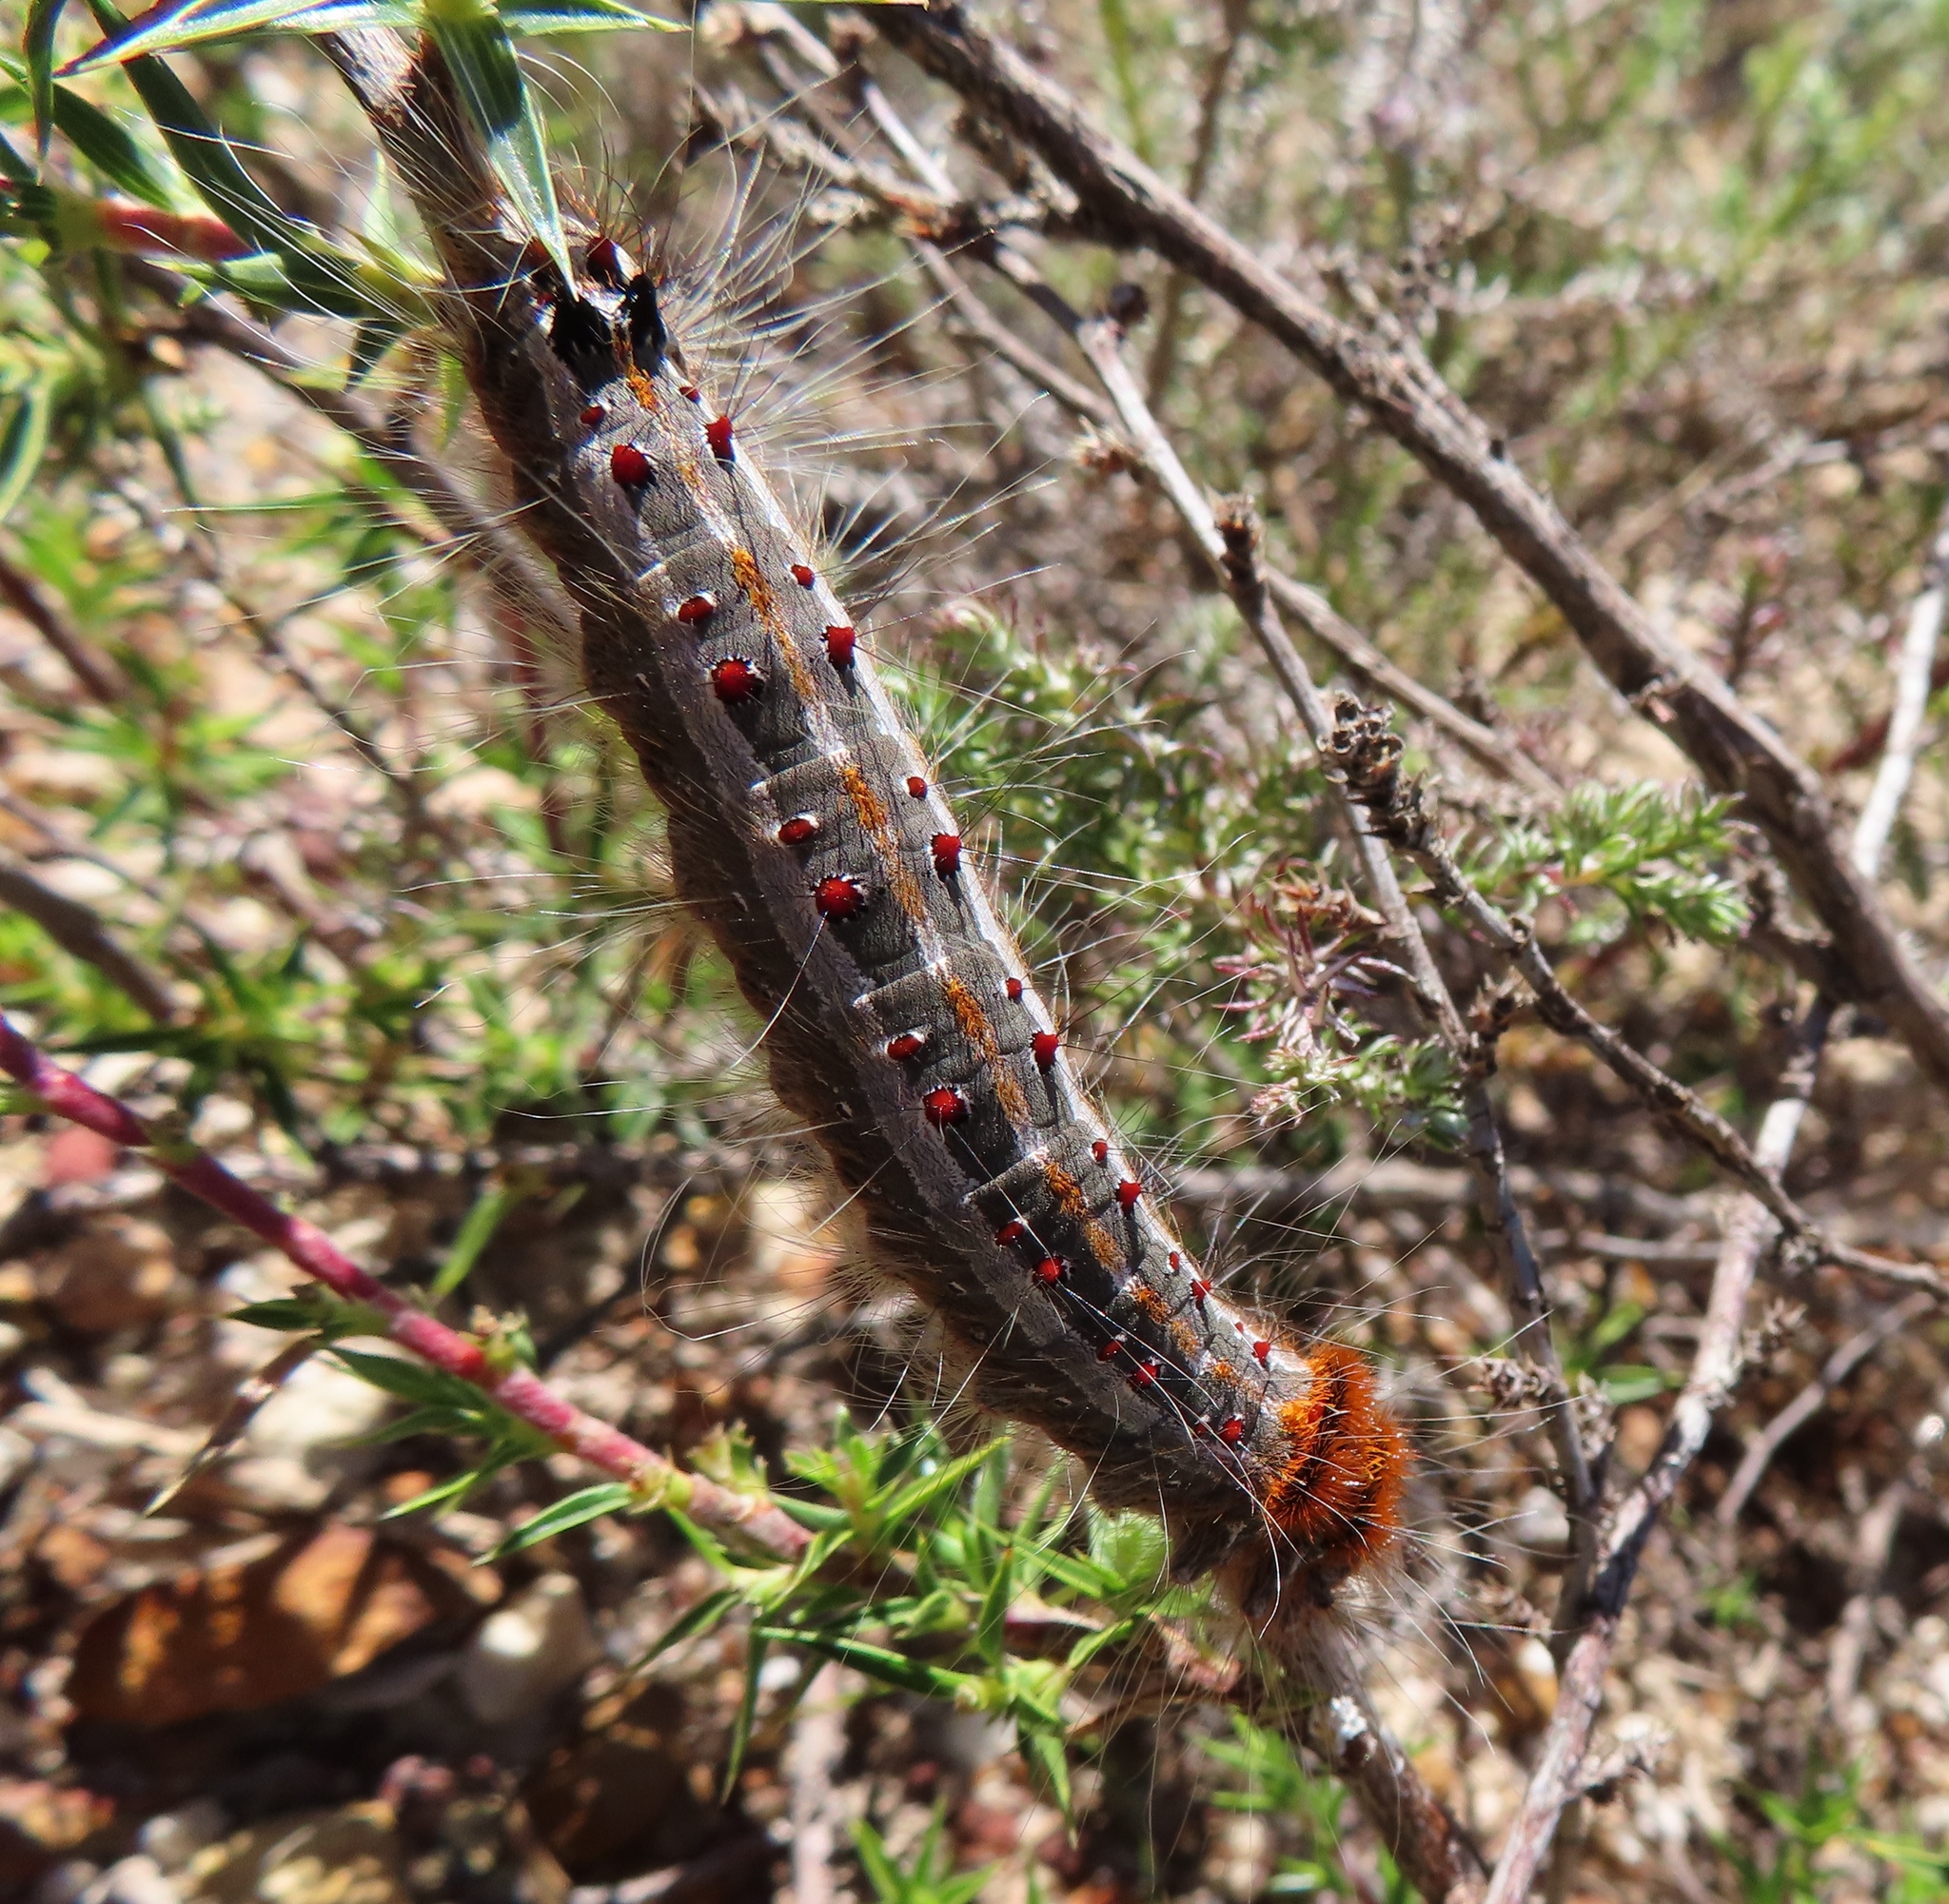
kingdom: Animalia
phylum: Arthropoda
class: Insecta
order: Lepidoptera
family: Lasiocampidae
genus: Streblote
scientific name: Streblote cristata
